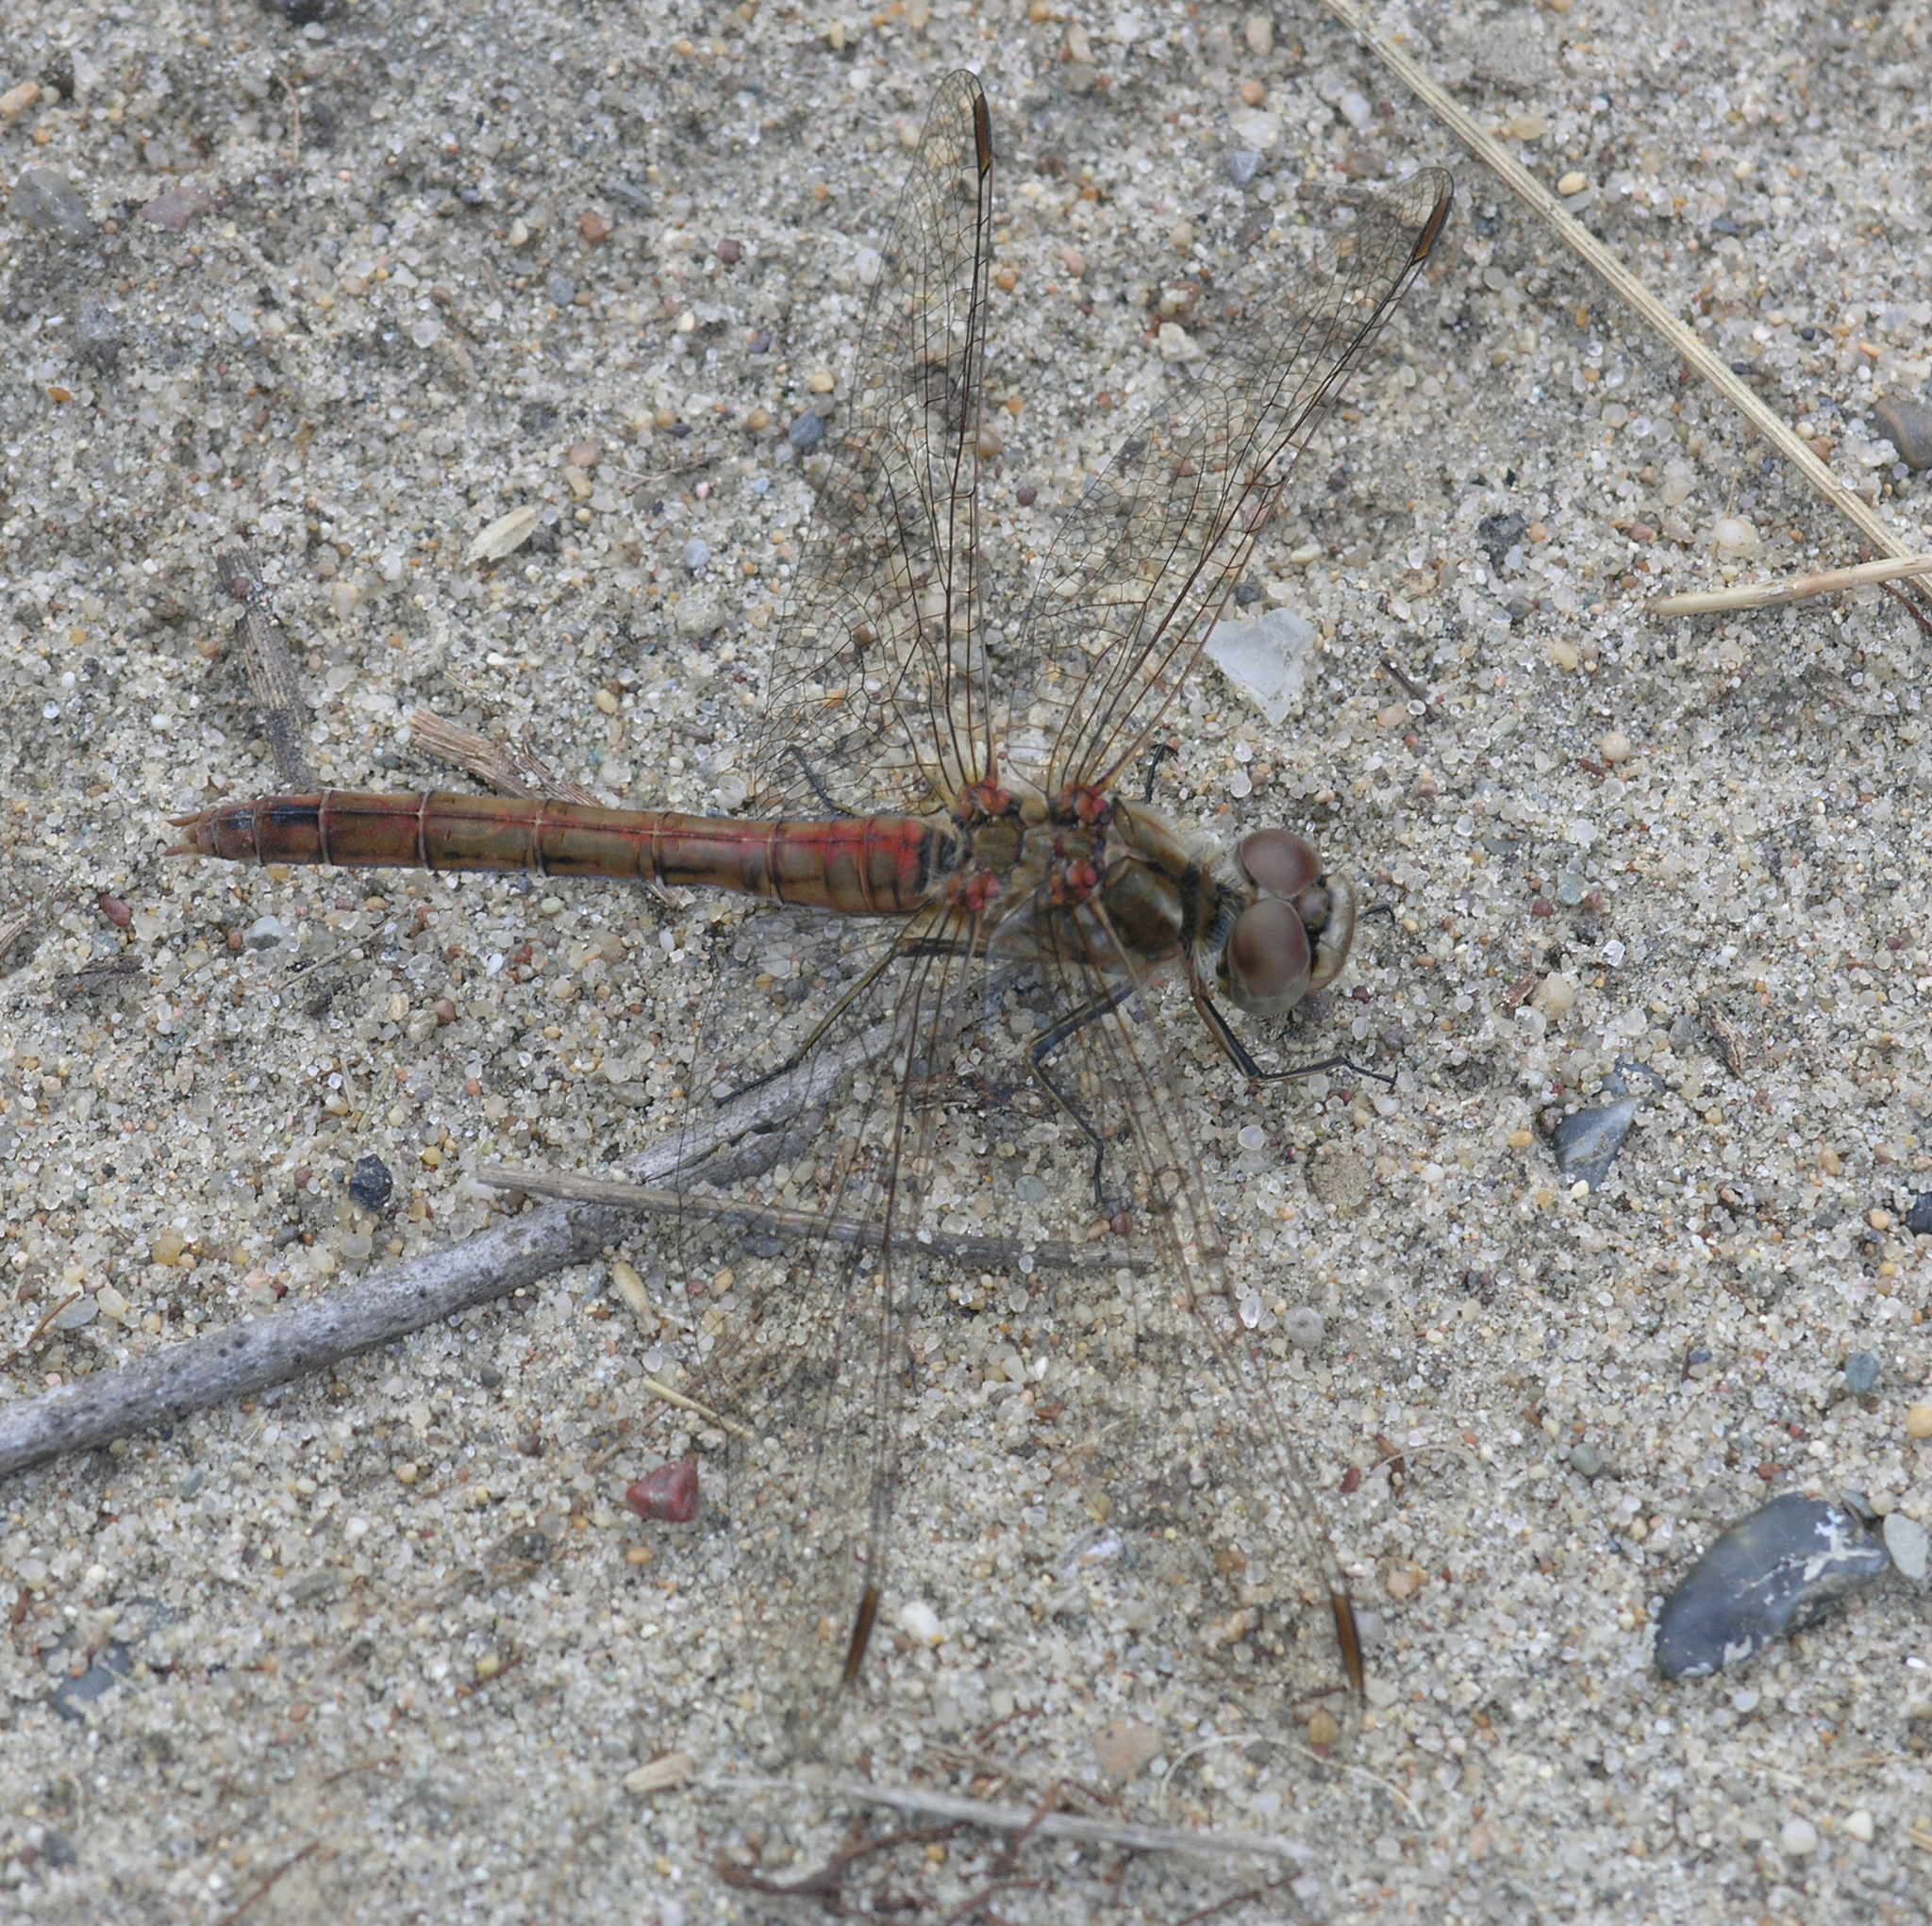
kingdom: Animalia
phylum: Arthropoda
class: Insecta
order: Odonata
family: Libellulidae
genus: Sympetrum
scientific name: Sympetrum vulgatum
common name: Vagrant darter
